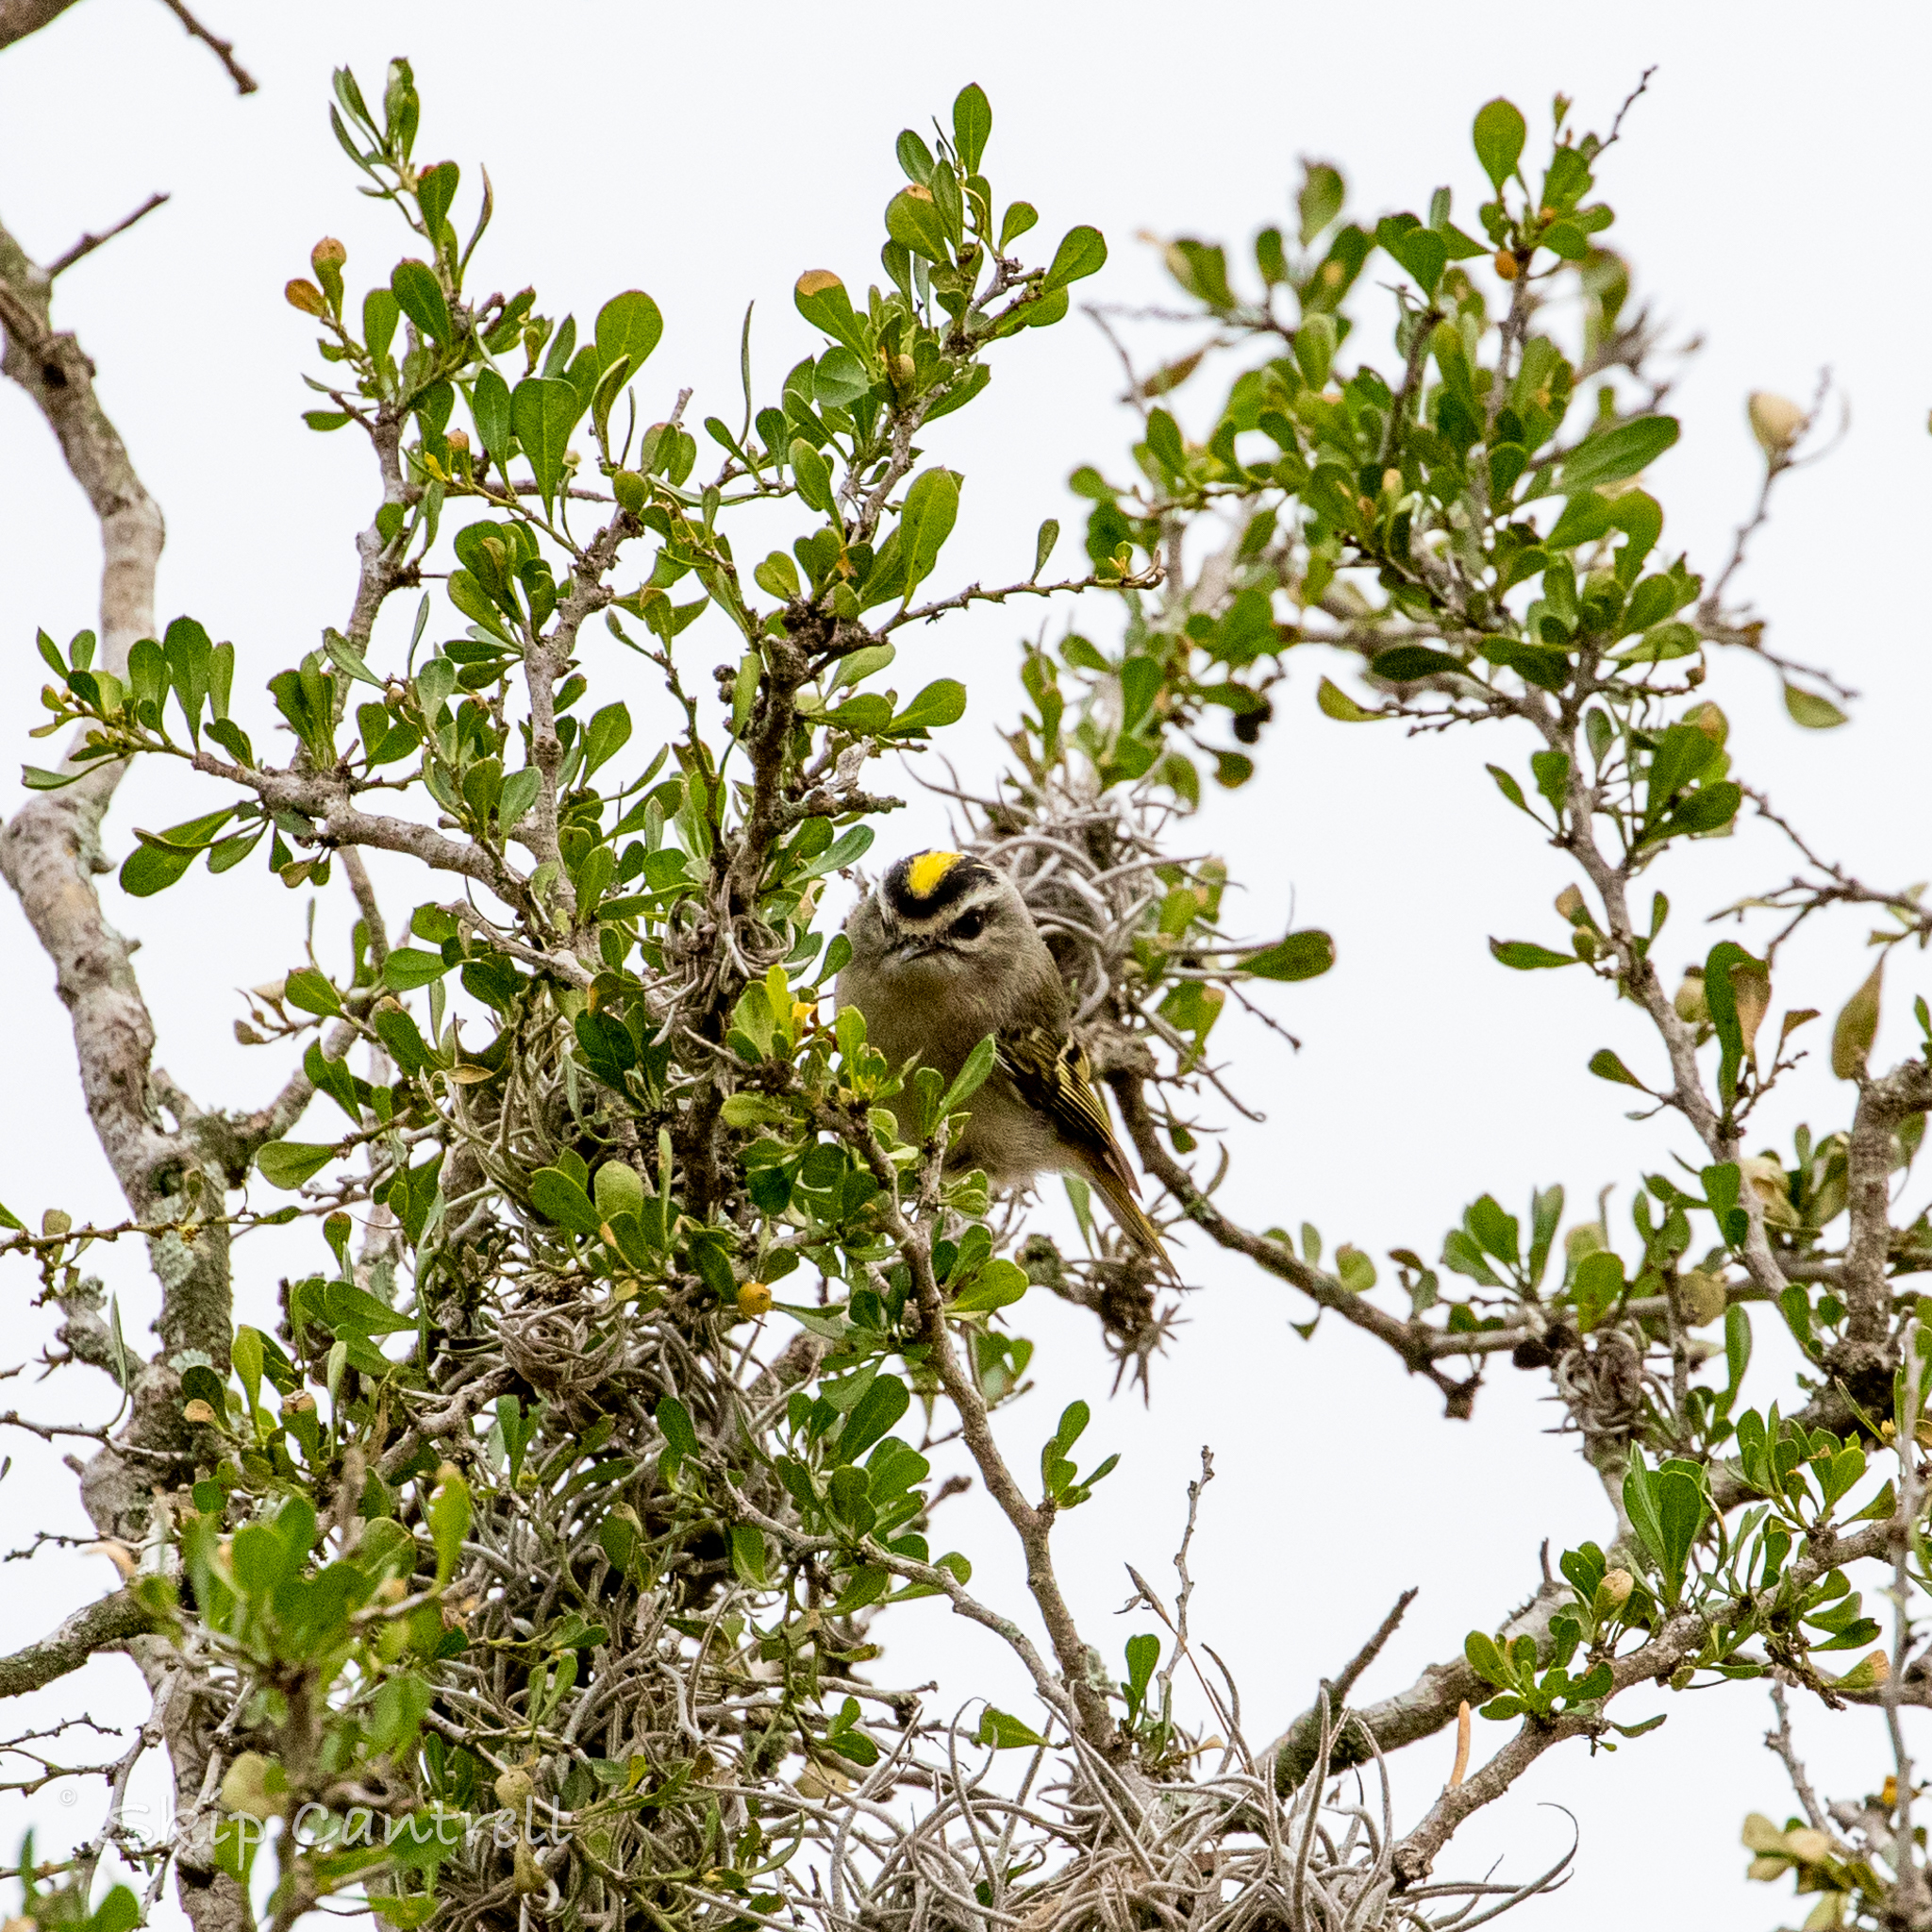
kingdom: Animalia
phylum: Chordata
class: Aves
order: Passeriformes
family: Regulidae
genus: Regulus
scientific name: Regulus satrapa
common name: Golden-crowned kinglet
